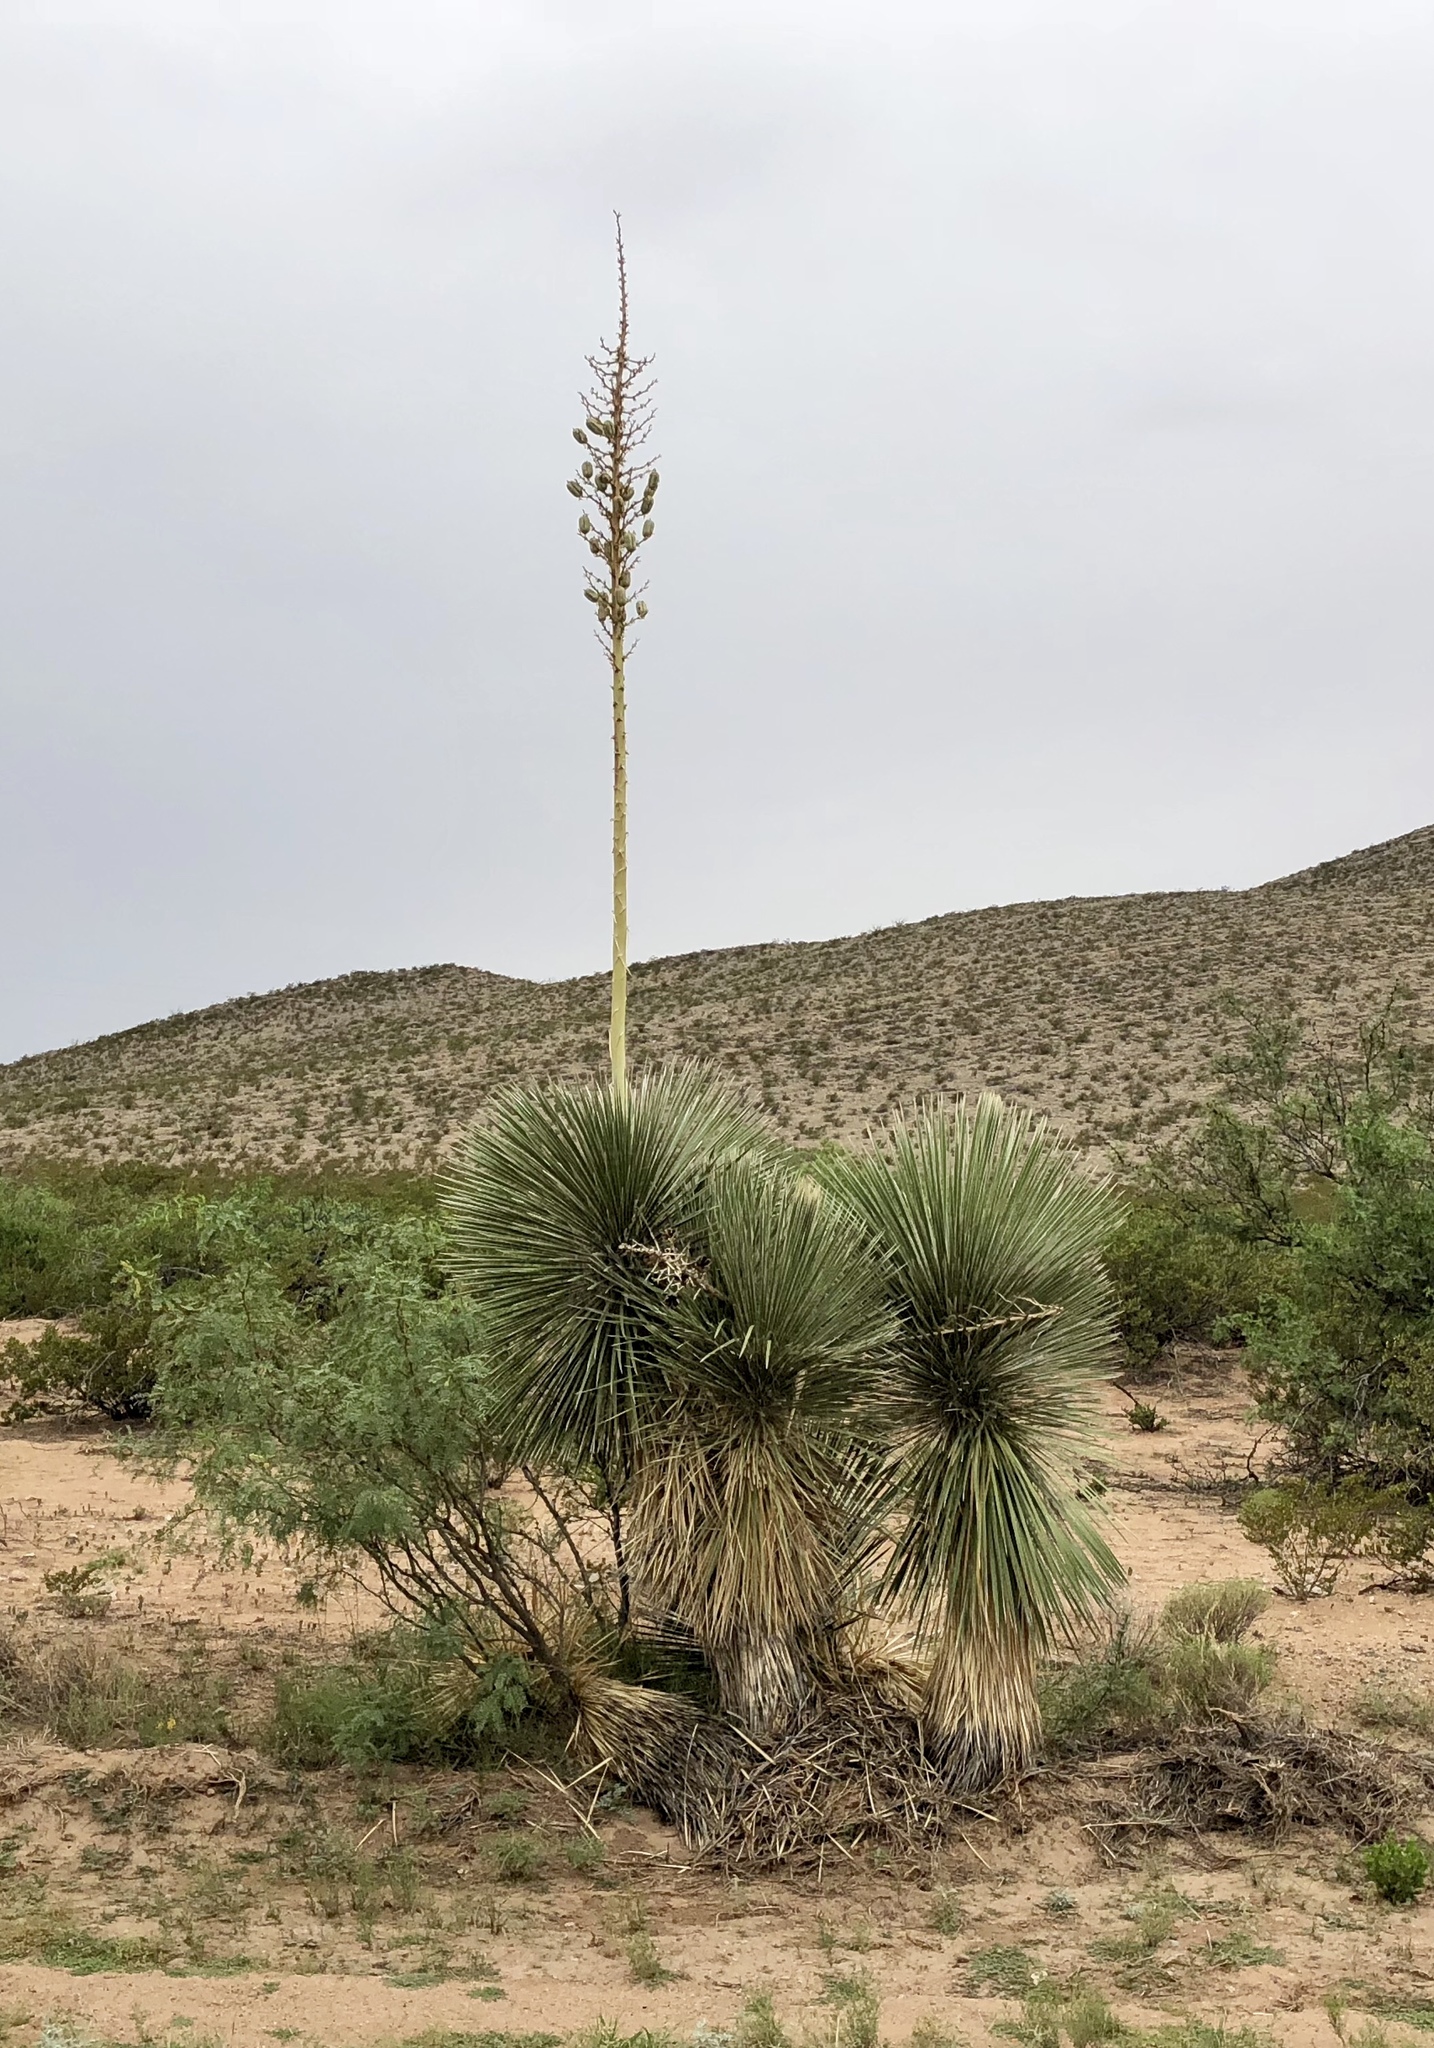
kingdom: Plantae
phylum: Tracheophyta
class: Liliopsida
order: Asparagales
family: Asparagaceae
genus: Yucca
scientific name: Yucca elata
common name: Palmella
